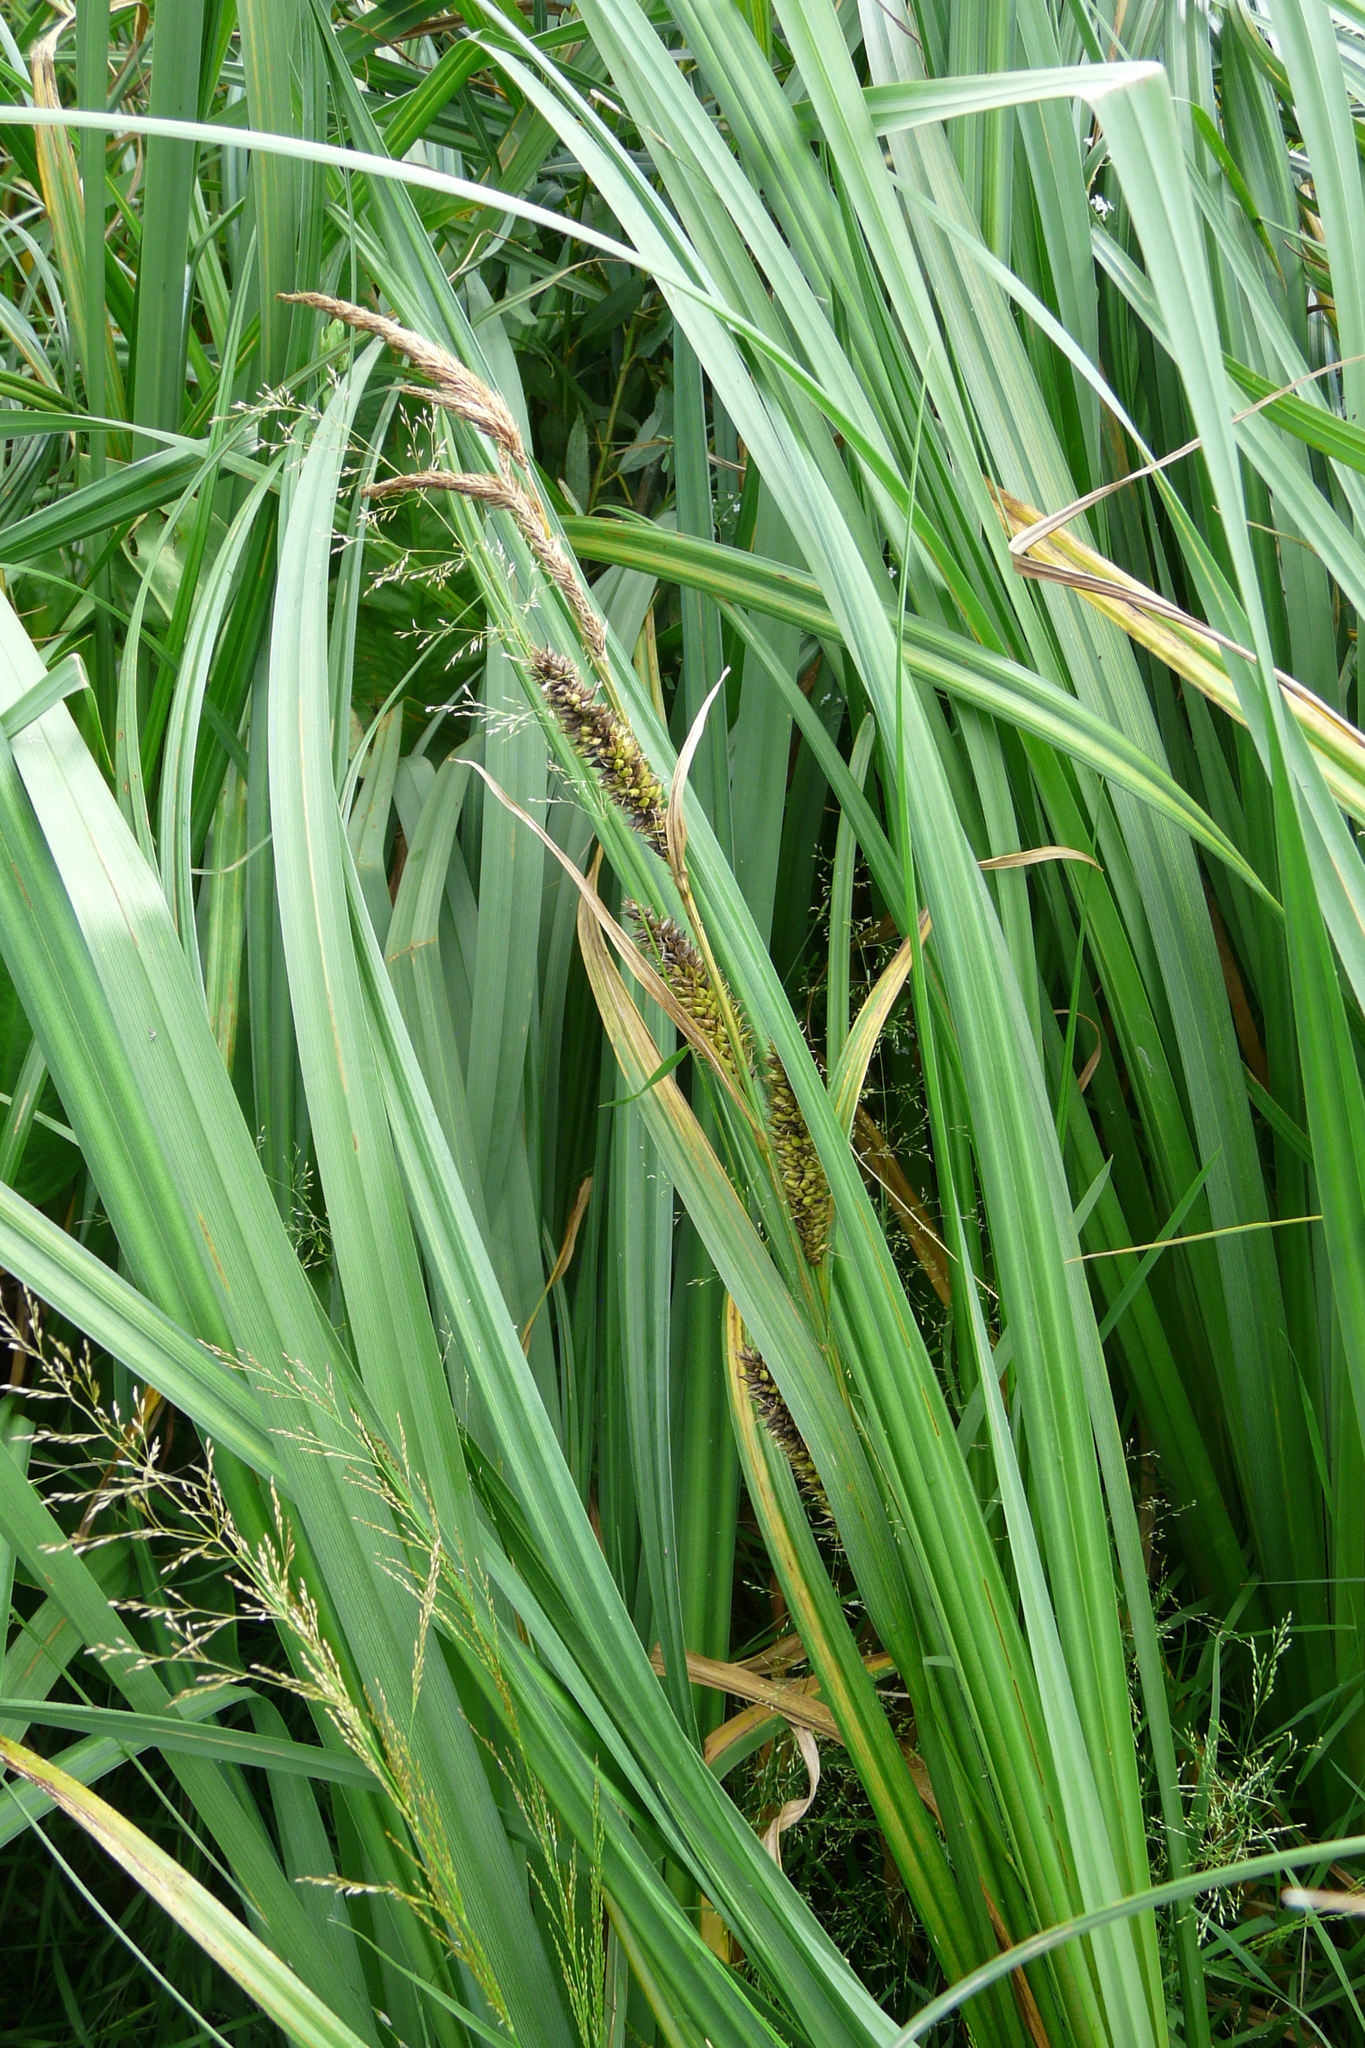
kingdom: Plantae
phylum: Tracheophyta
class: Liliopsida
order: Poales
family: Cyperaceae
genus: Carex
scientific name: Carex riparia
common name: Greater pond-sedge
